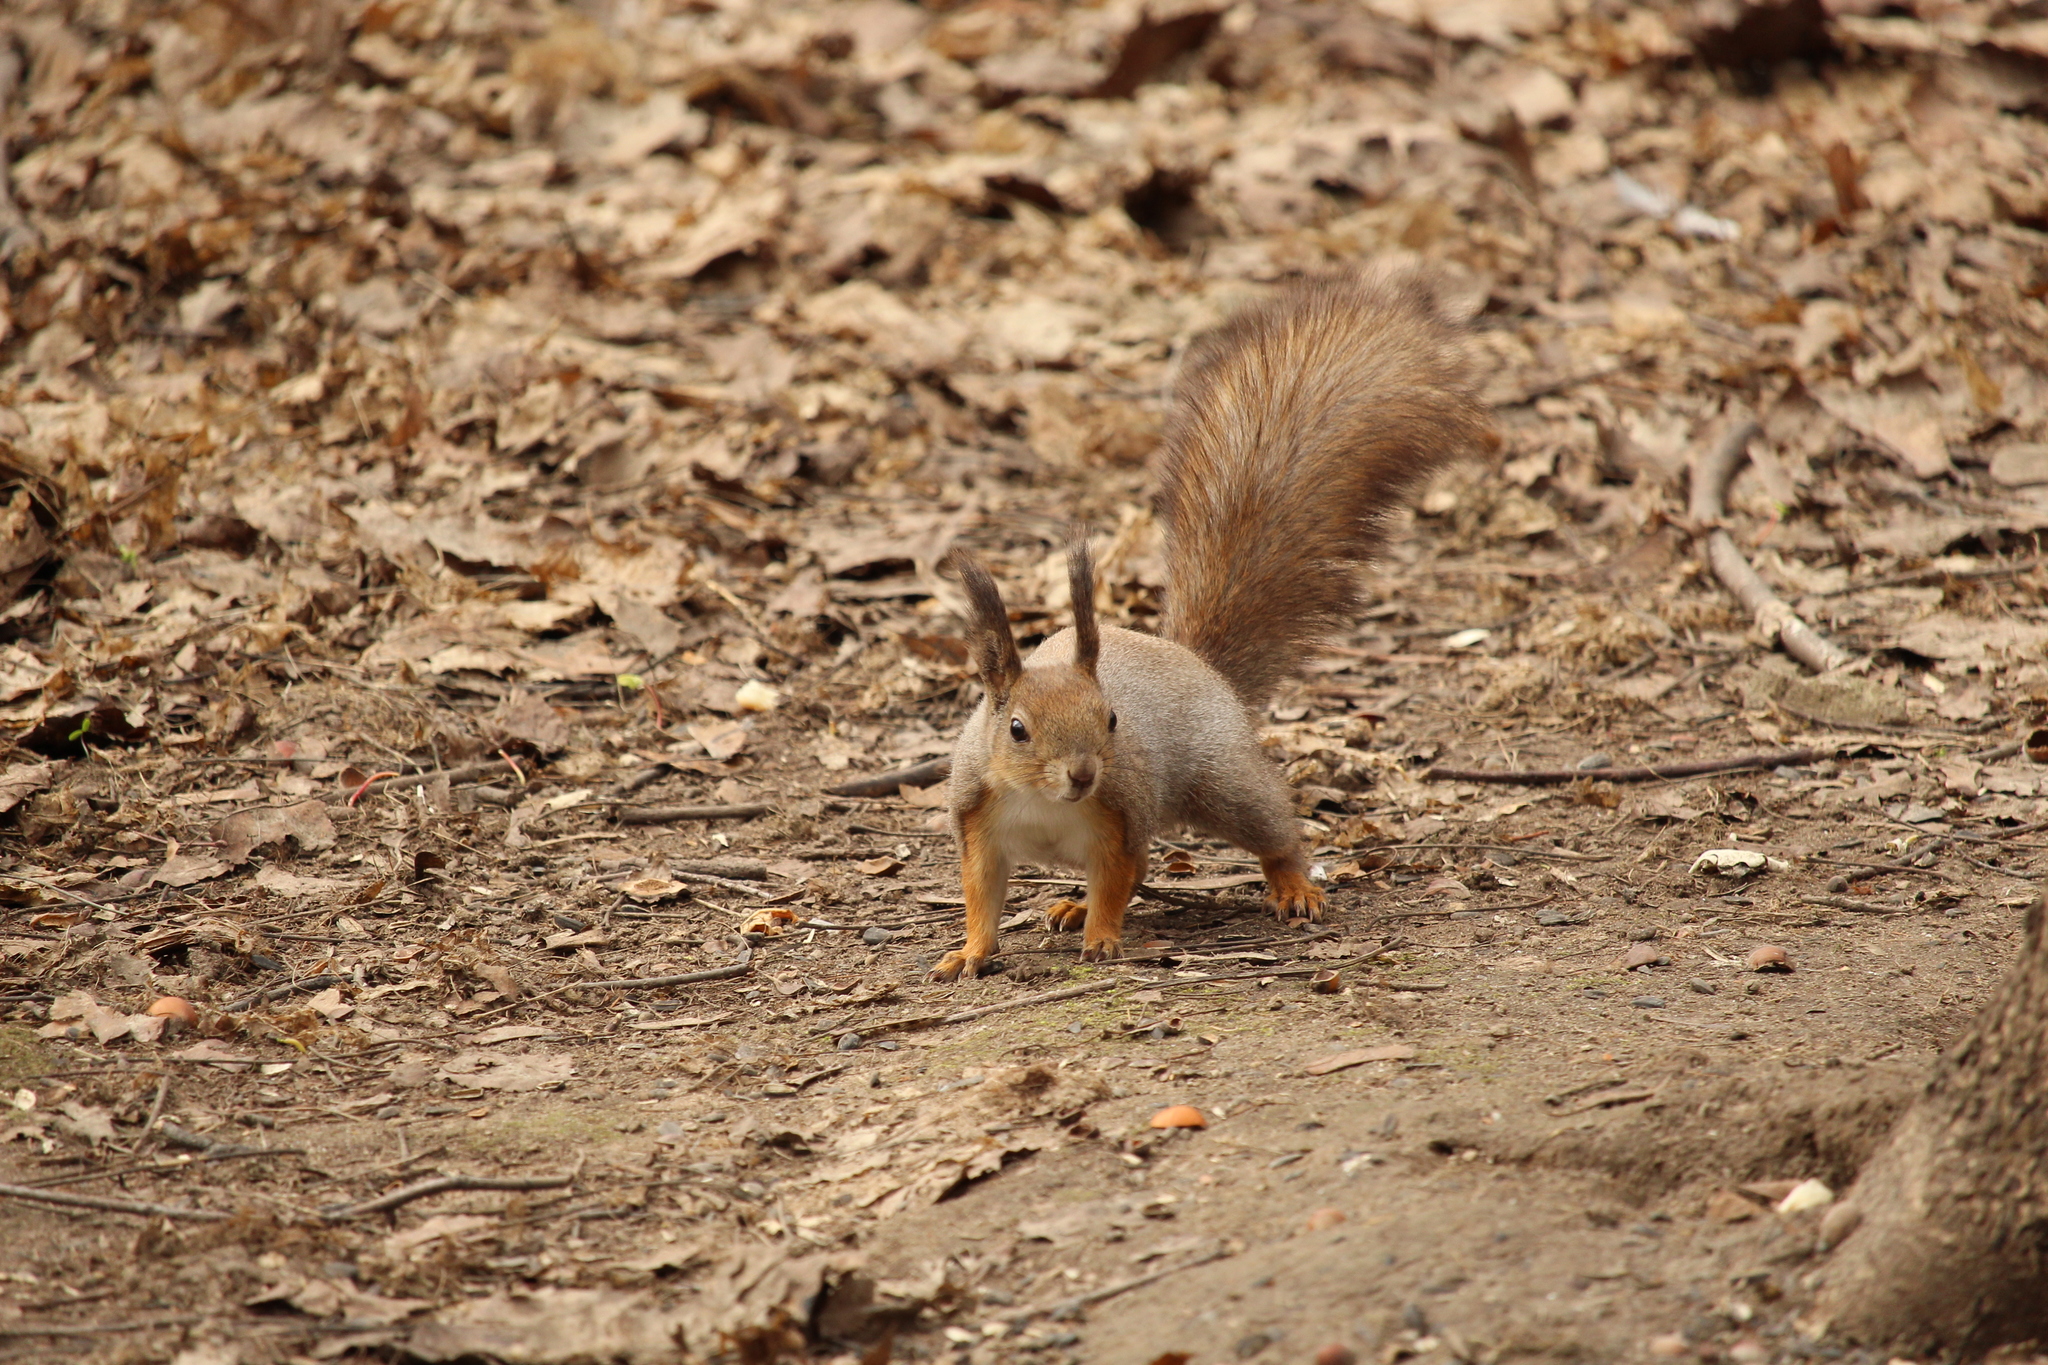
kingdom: Animalia
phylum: Chordata
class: Mammalia
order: Rodentia
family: Sciuridae
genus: Sciurus
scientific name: Sciurus vulgaris
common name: Eurasian red squirrel
